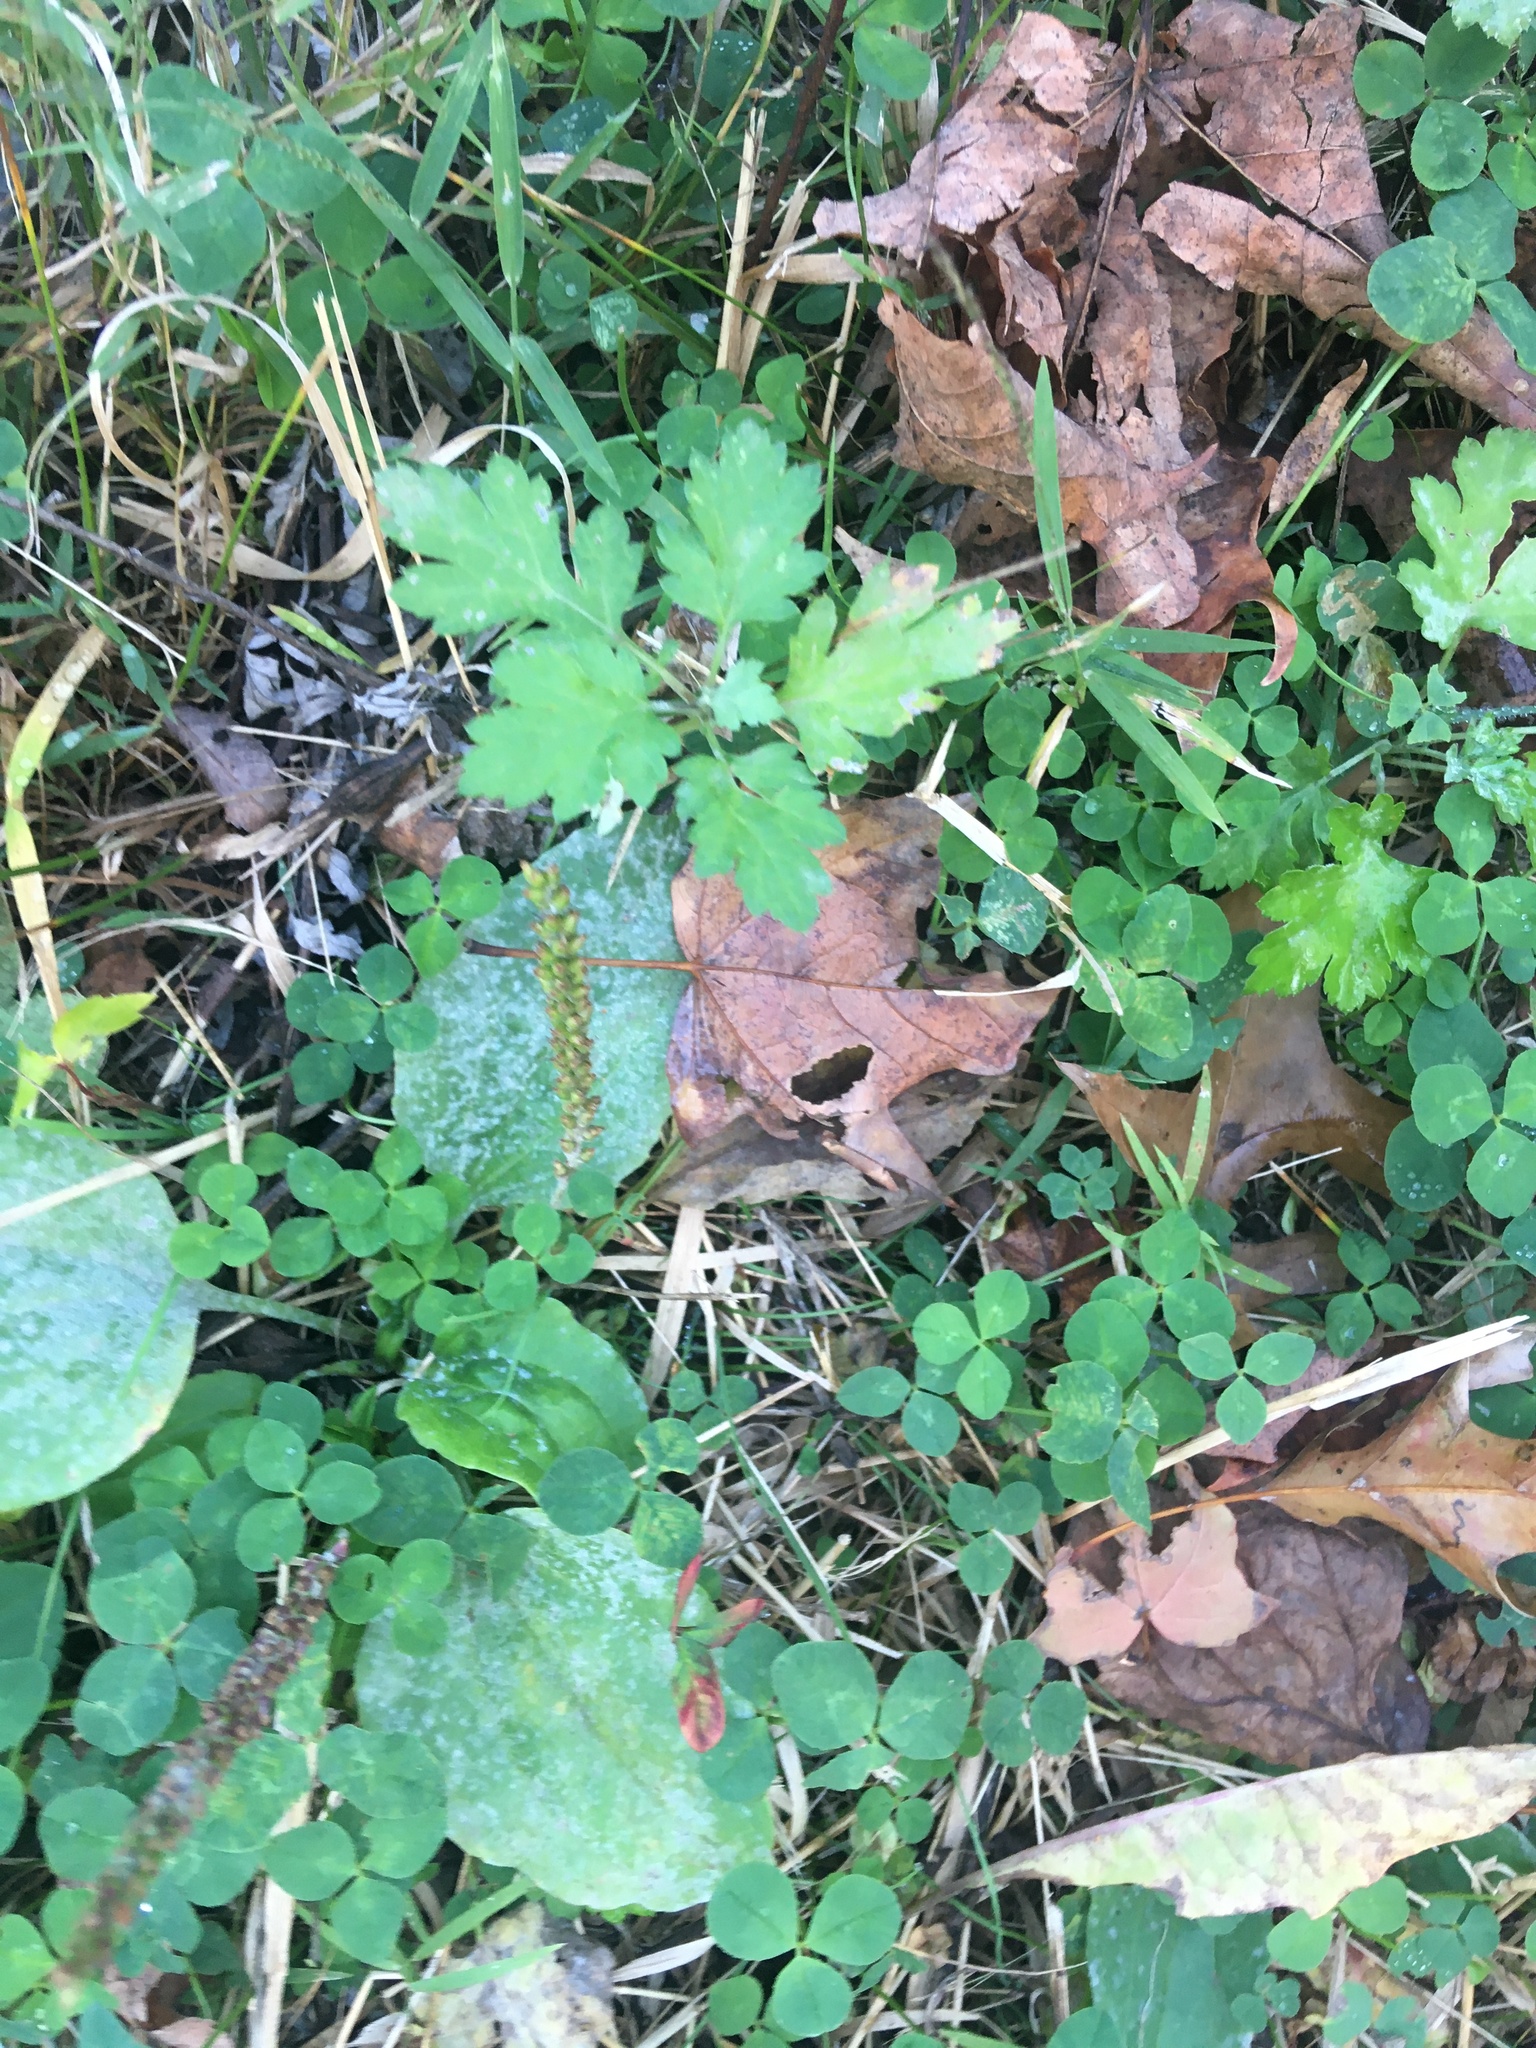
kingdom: Plantae
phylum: Tracheophyta
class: Magnoliopsida
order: Asterales
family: Asteraceae
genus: Artemisia
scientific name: Artemisia vulgaris
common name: Mugwort
